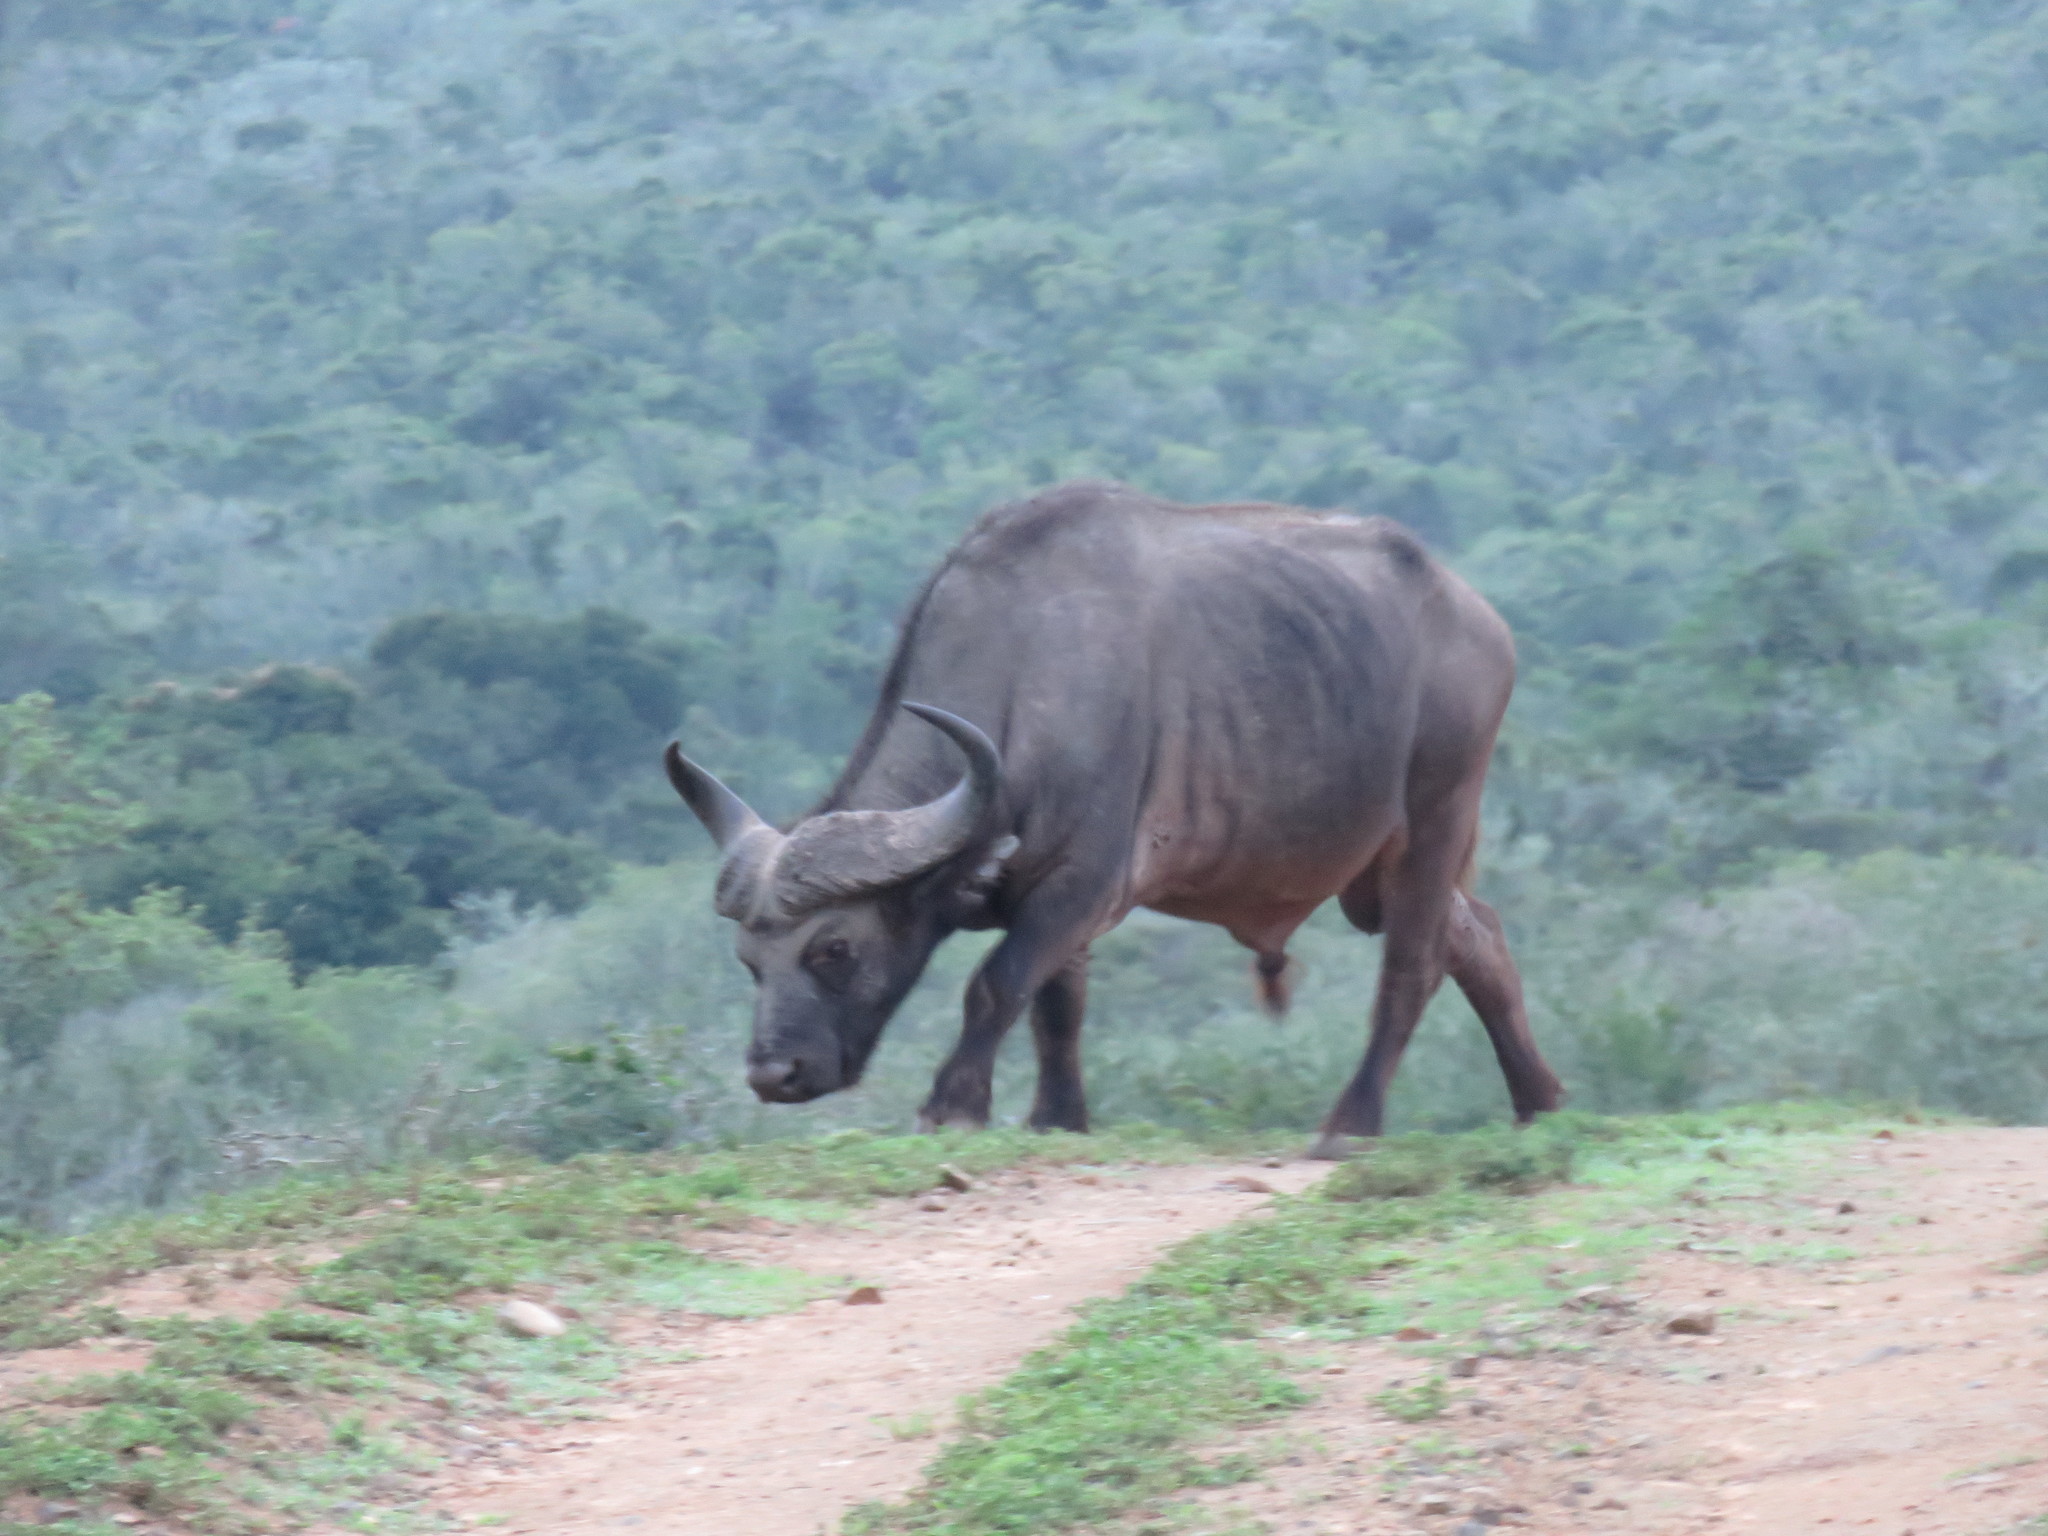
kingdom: Animalia
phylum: Chordata
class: Mammalia
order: Artiodactyla
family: Bovidae
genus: Syncerus
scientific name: Syncerus caffer
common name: African buffalo
